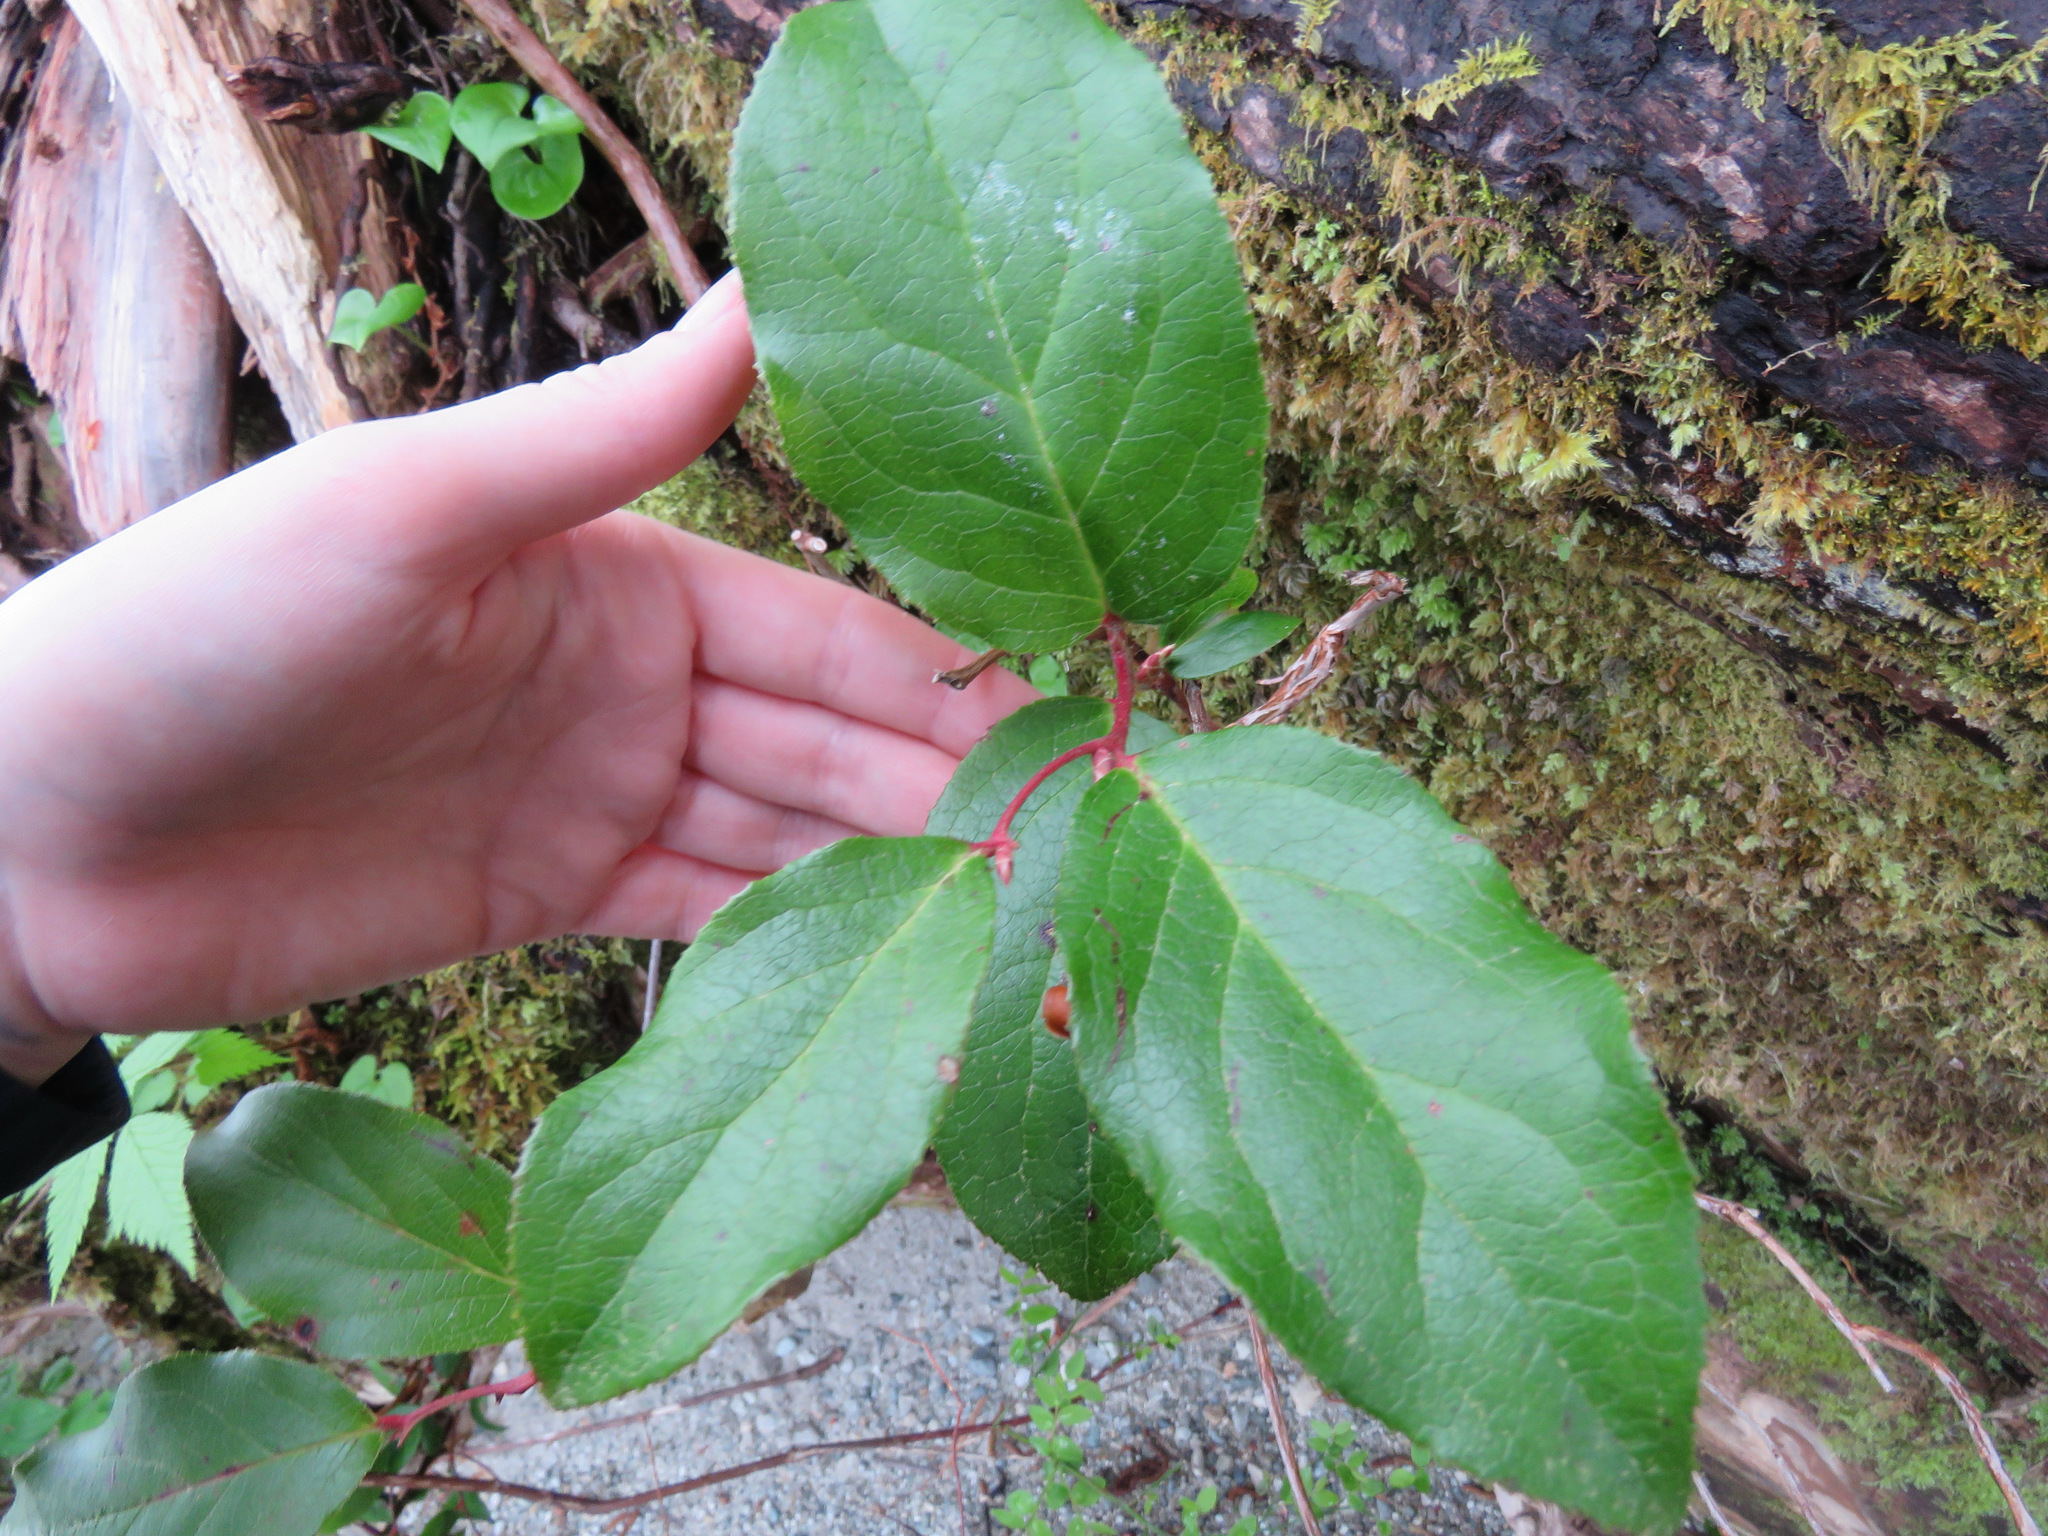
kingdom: Plantae
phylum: Tracheophyta
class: Magnoliopsida
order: Ericales
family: Ericaceae
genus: Gaultheria
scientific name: Gaultheria shallon
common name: Shallon
